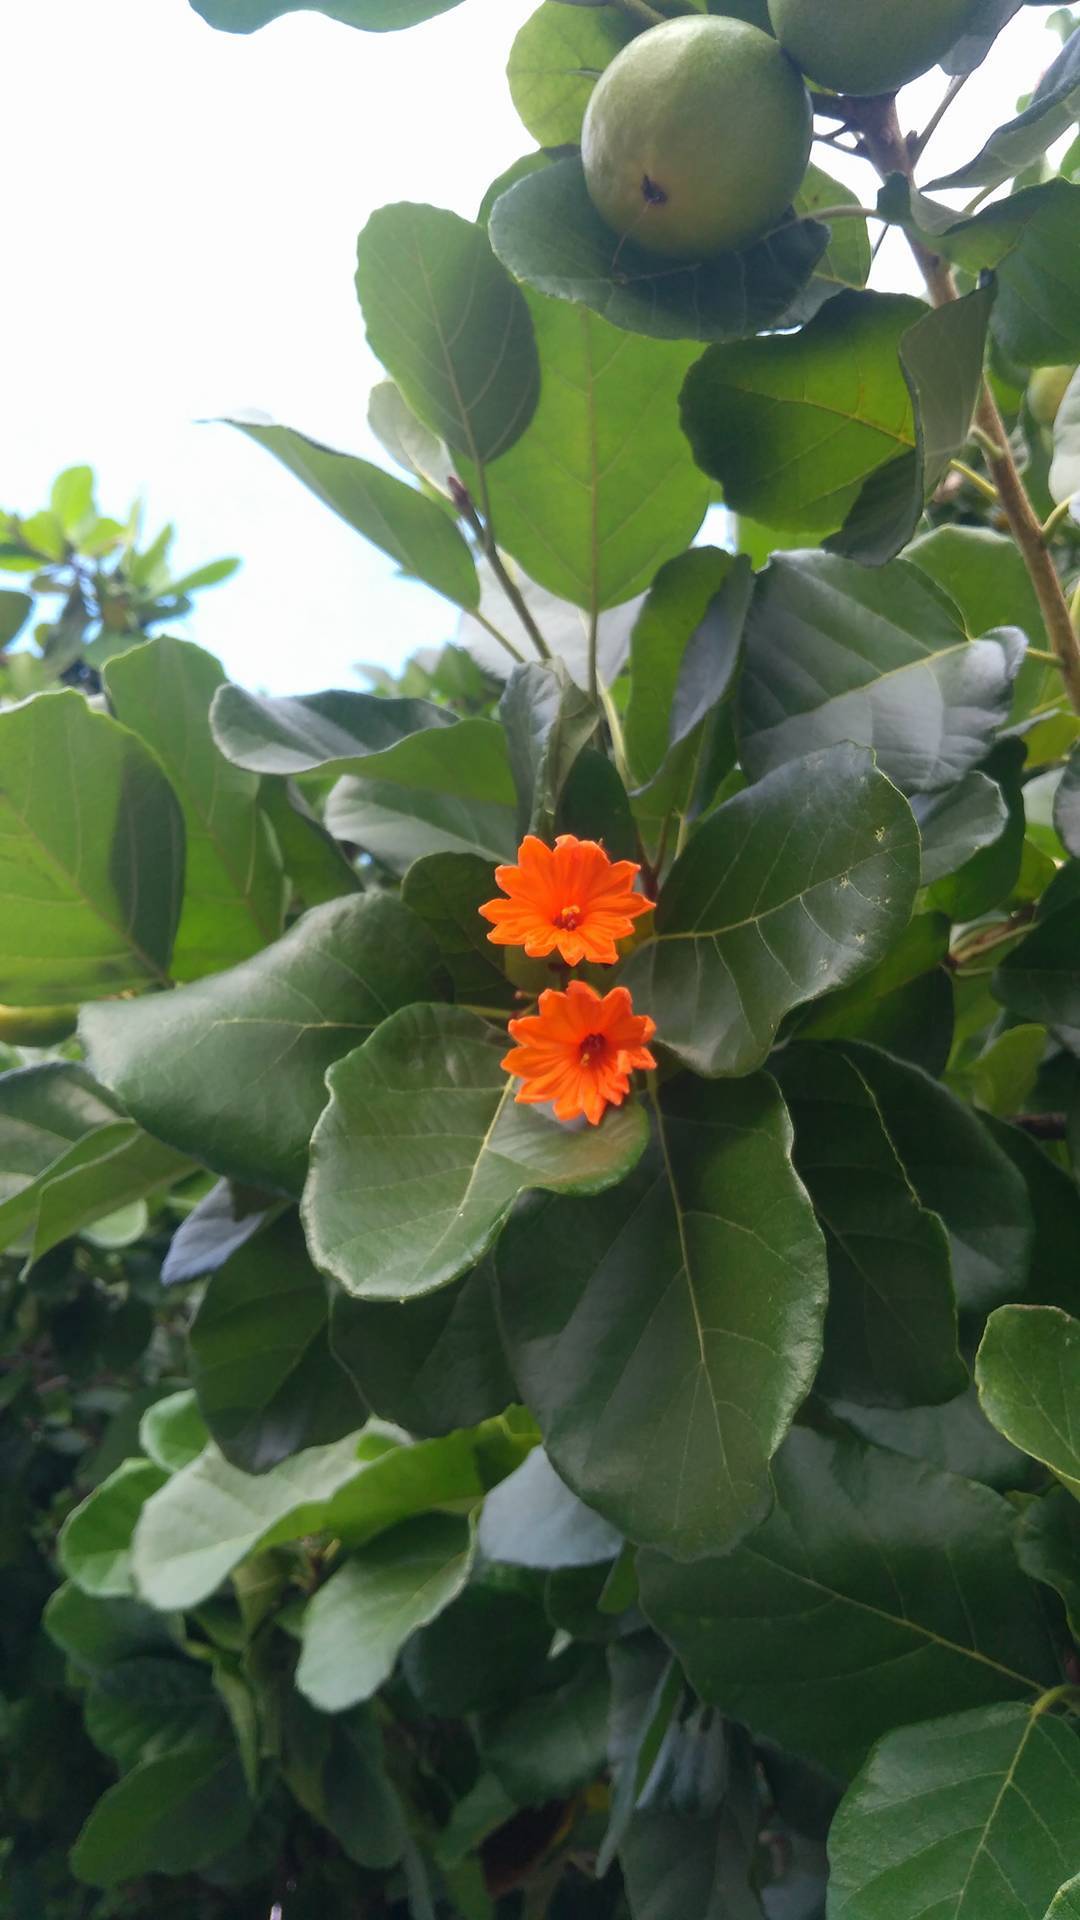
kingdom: Plantae
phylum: Tracheophyta
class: Magnoliopsida
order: Boraginales
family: Cordiaceae
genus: Cordia
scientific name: Cordia dodecandra
